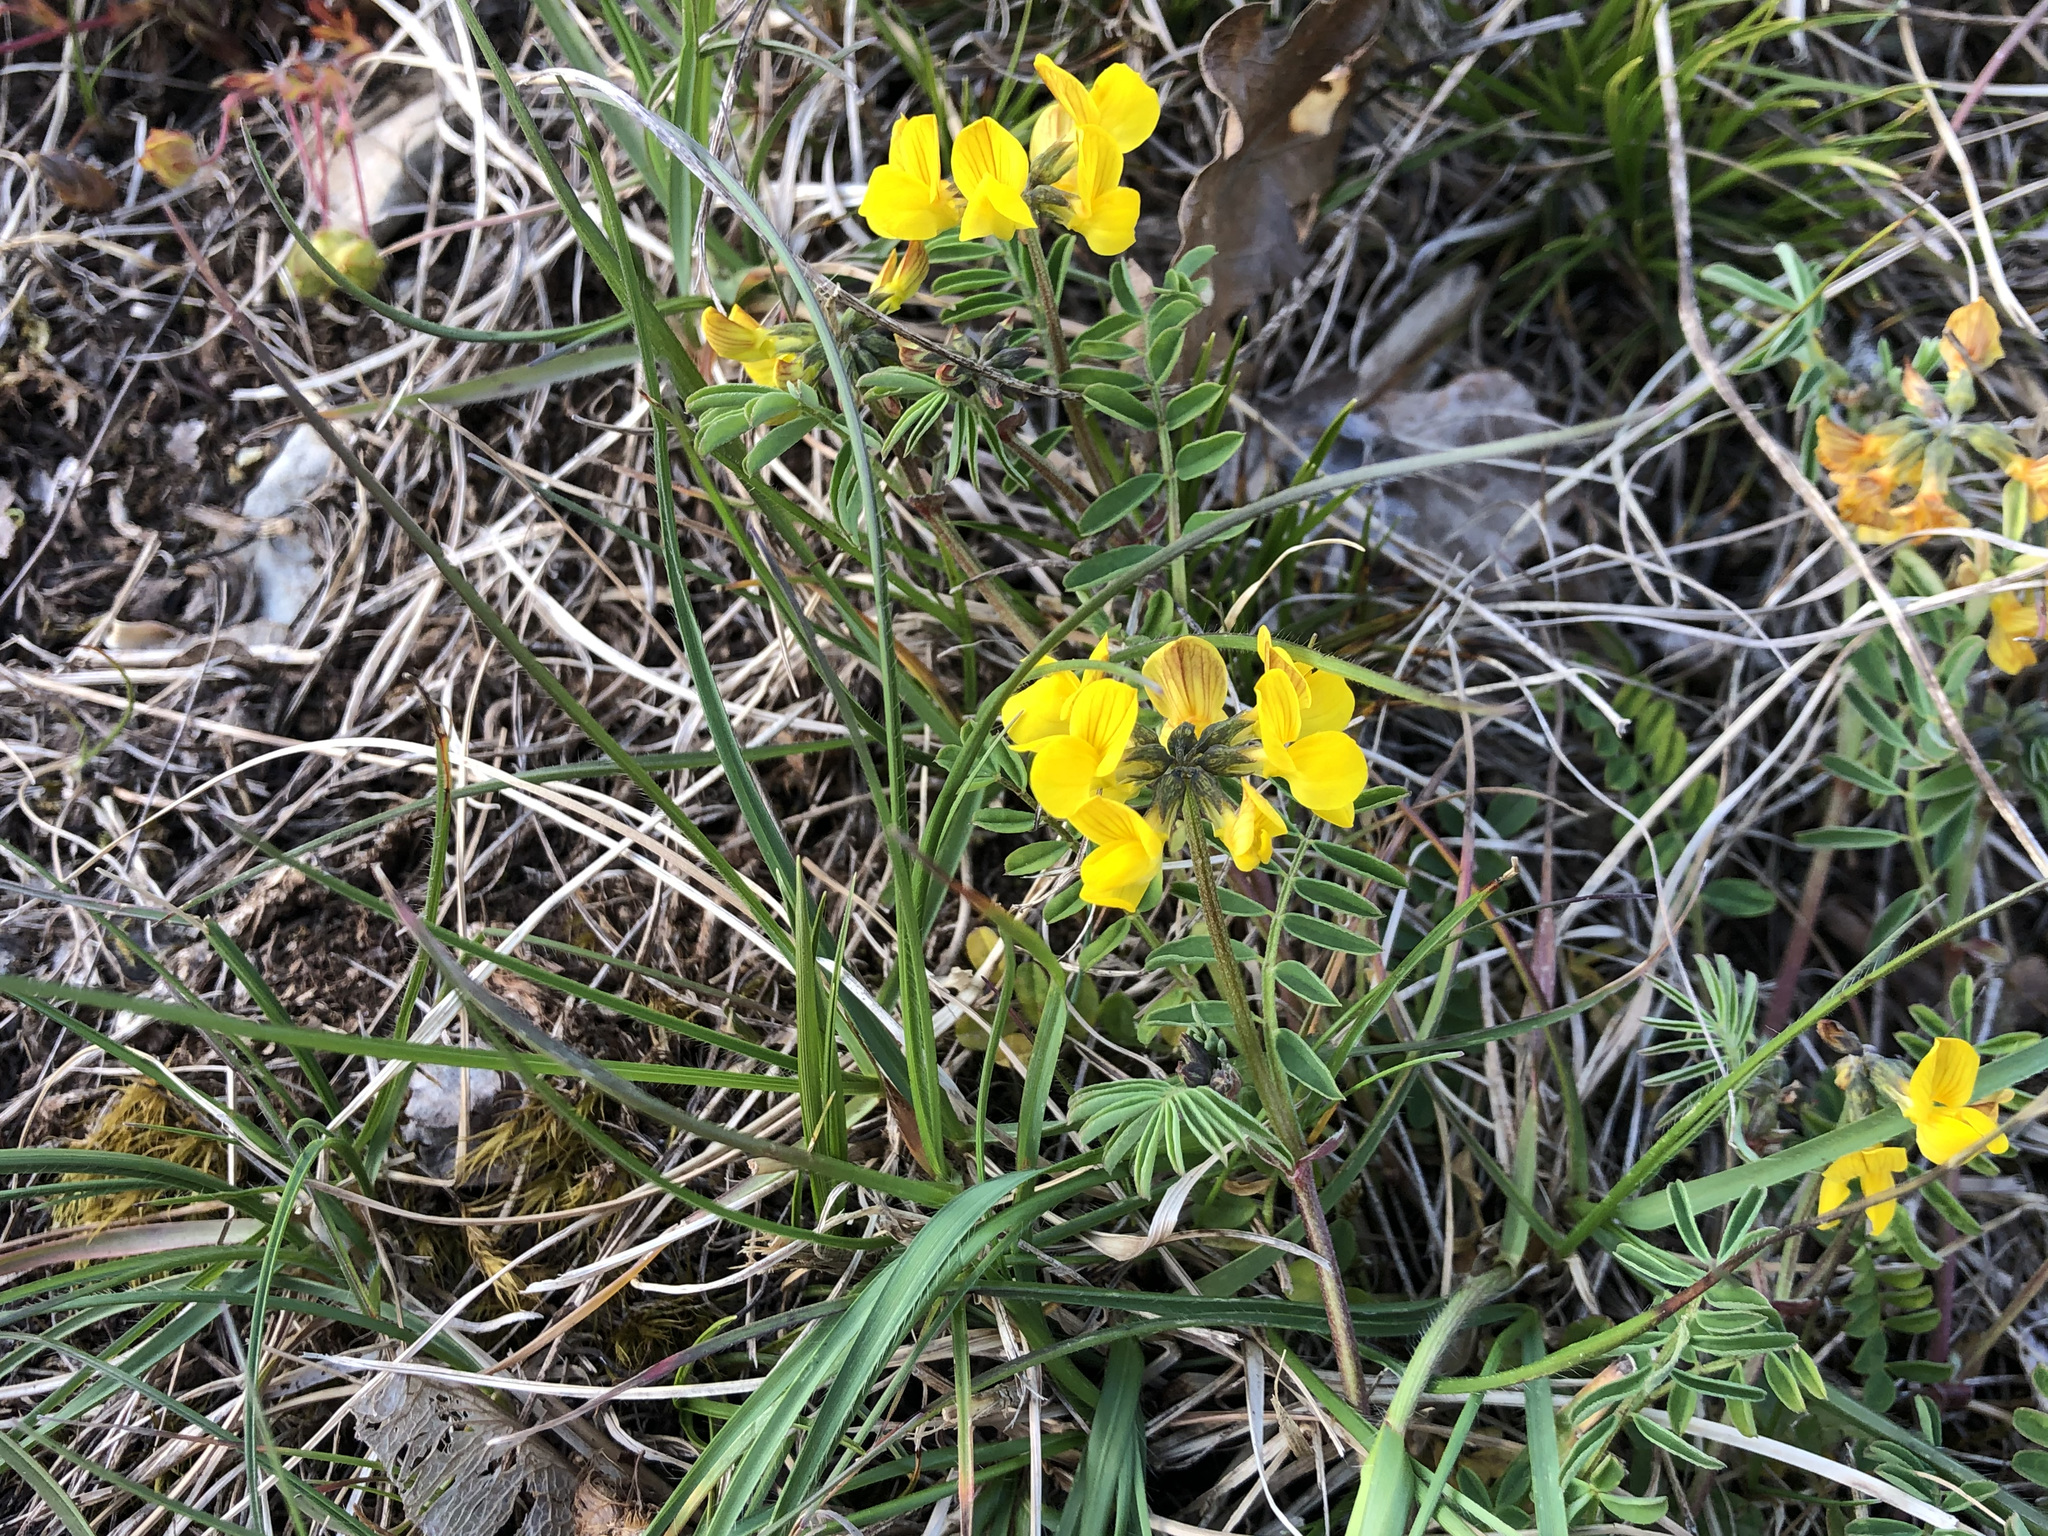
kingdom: Plantae
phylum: Tracheophyta
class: Magnoliopsida
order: Fabales
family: Fabaceae
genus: Hippocrepis
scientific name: Hippocrepis comosa
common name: Horseshoe vetch
